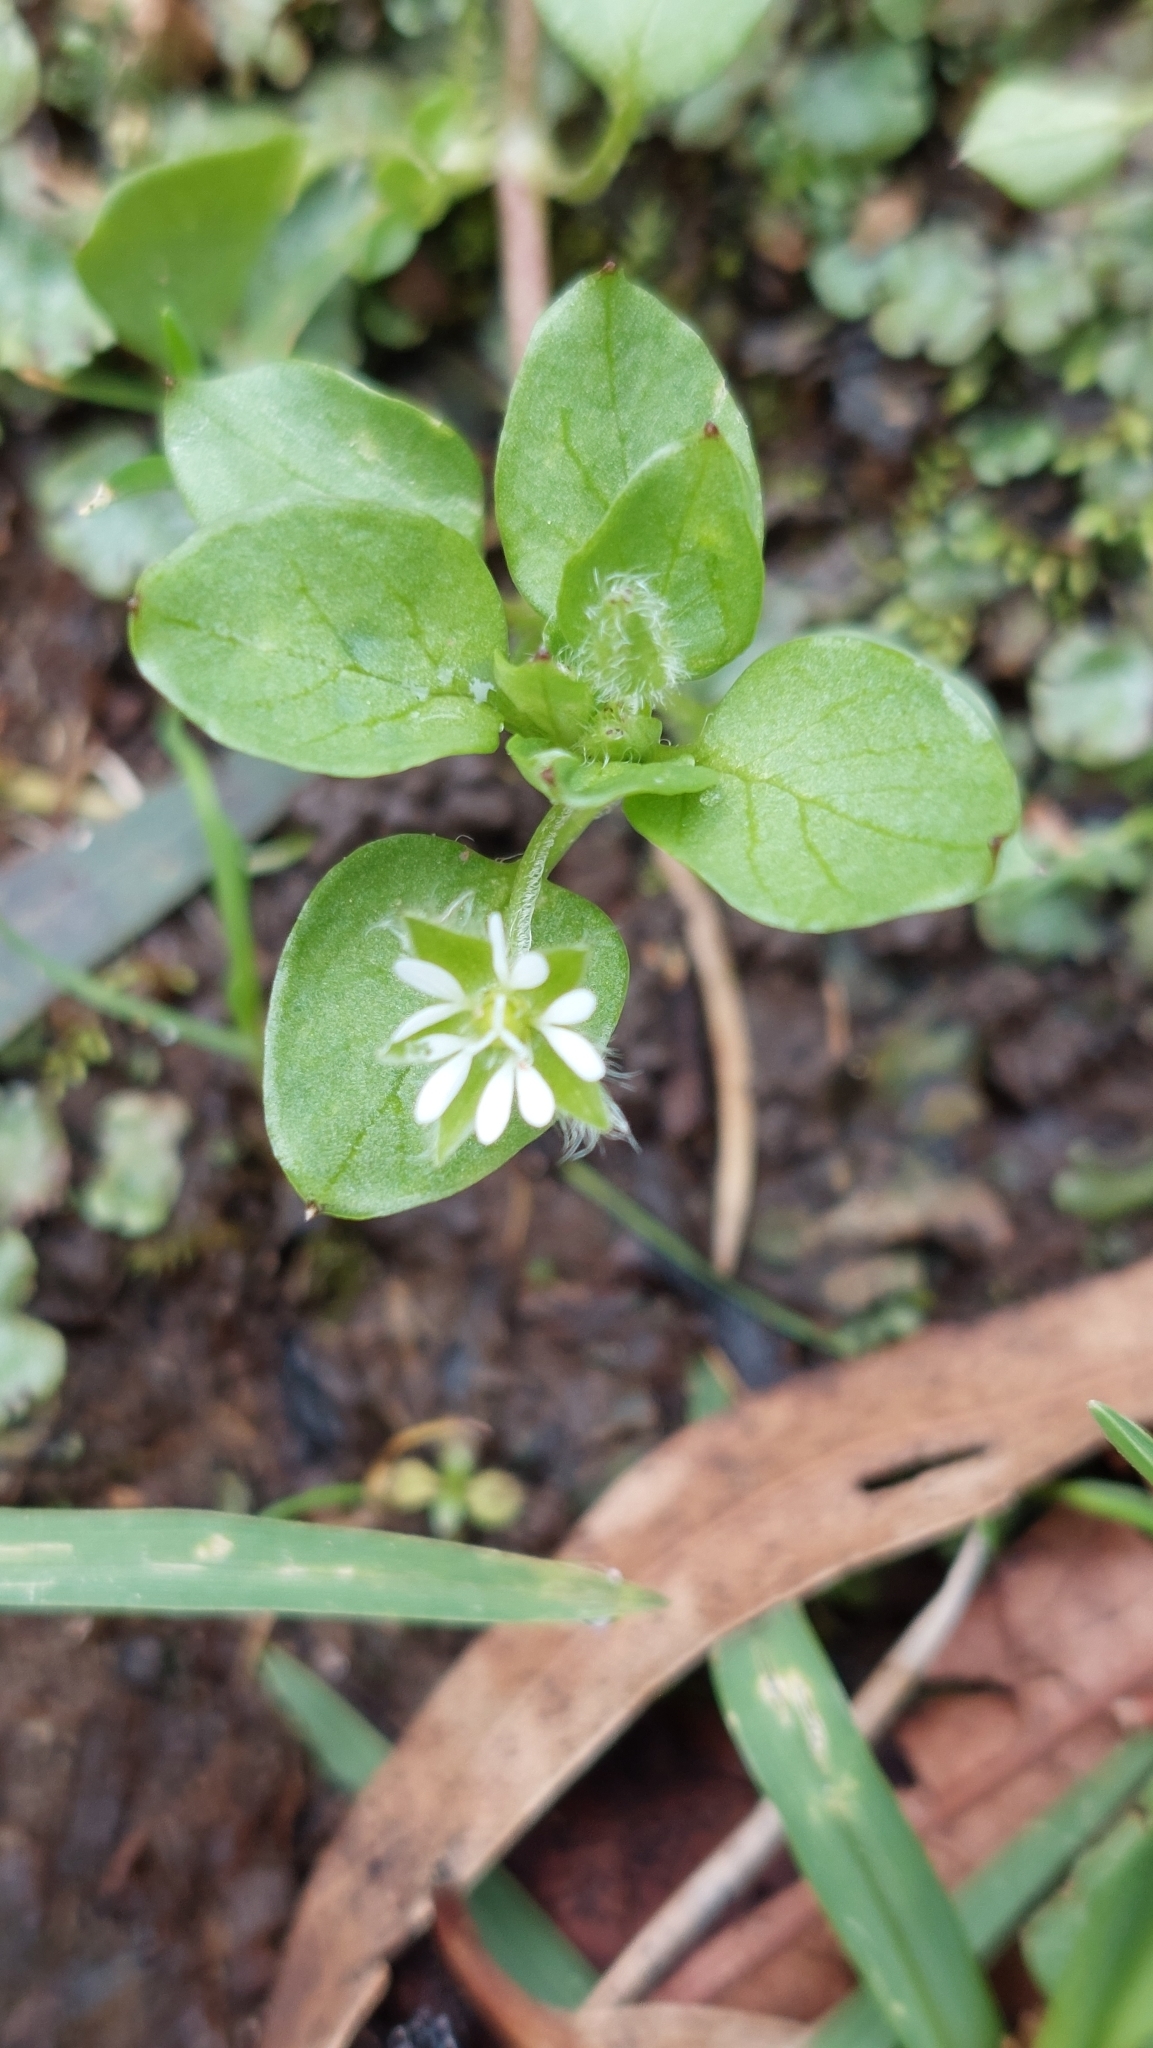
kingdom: Plantae
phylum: Tracheophyta
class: Magnoliopsida
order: Caryophyllales
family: Caryophyllaceae
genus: Stellaria
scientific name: Stellaria media
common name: Common chickweed
